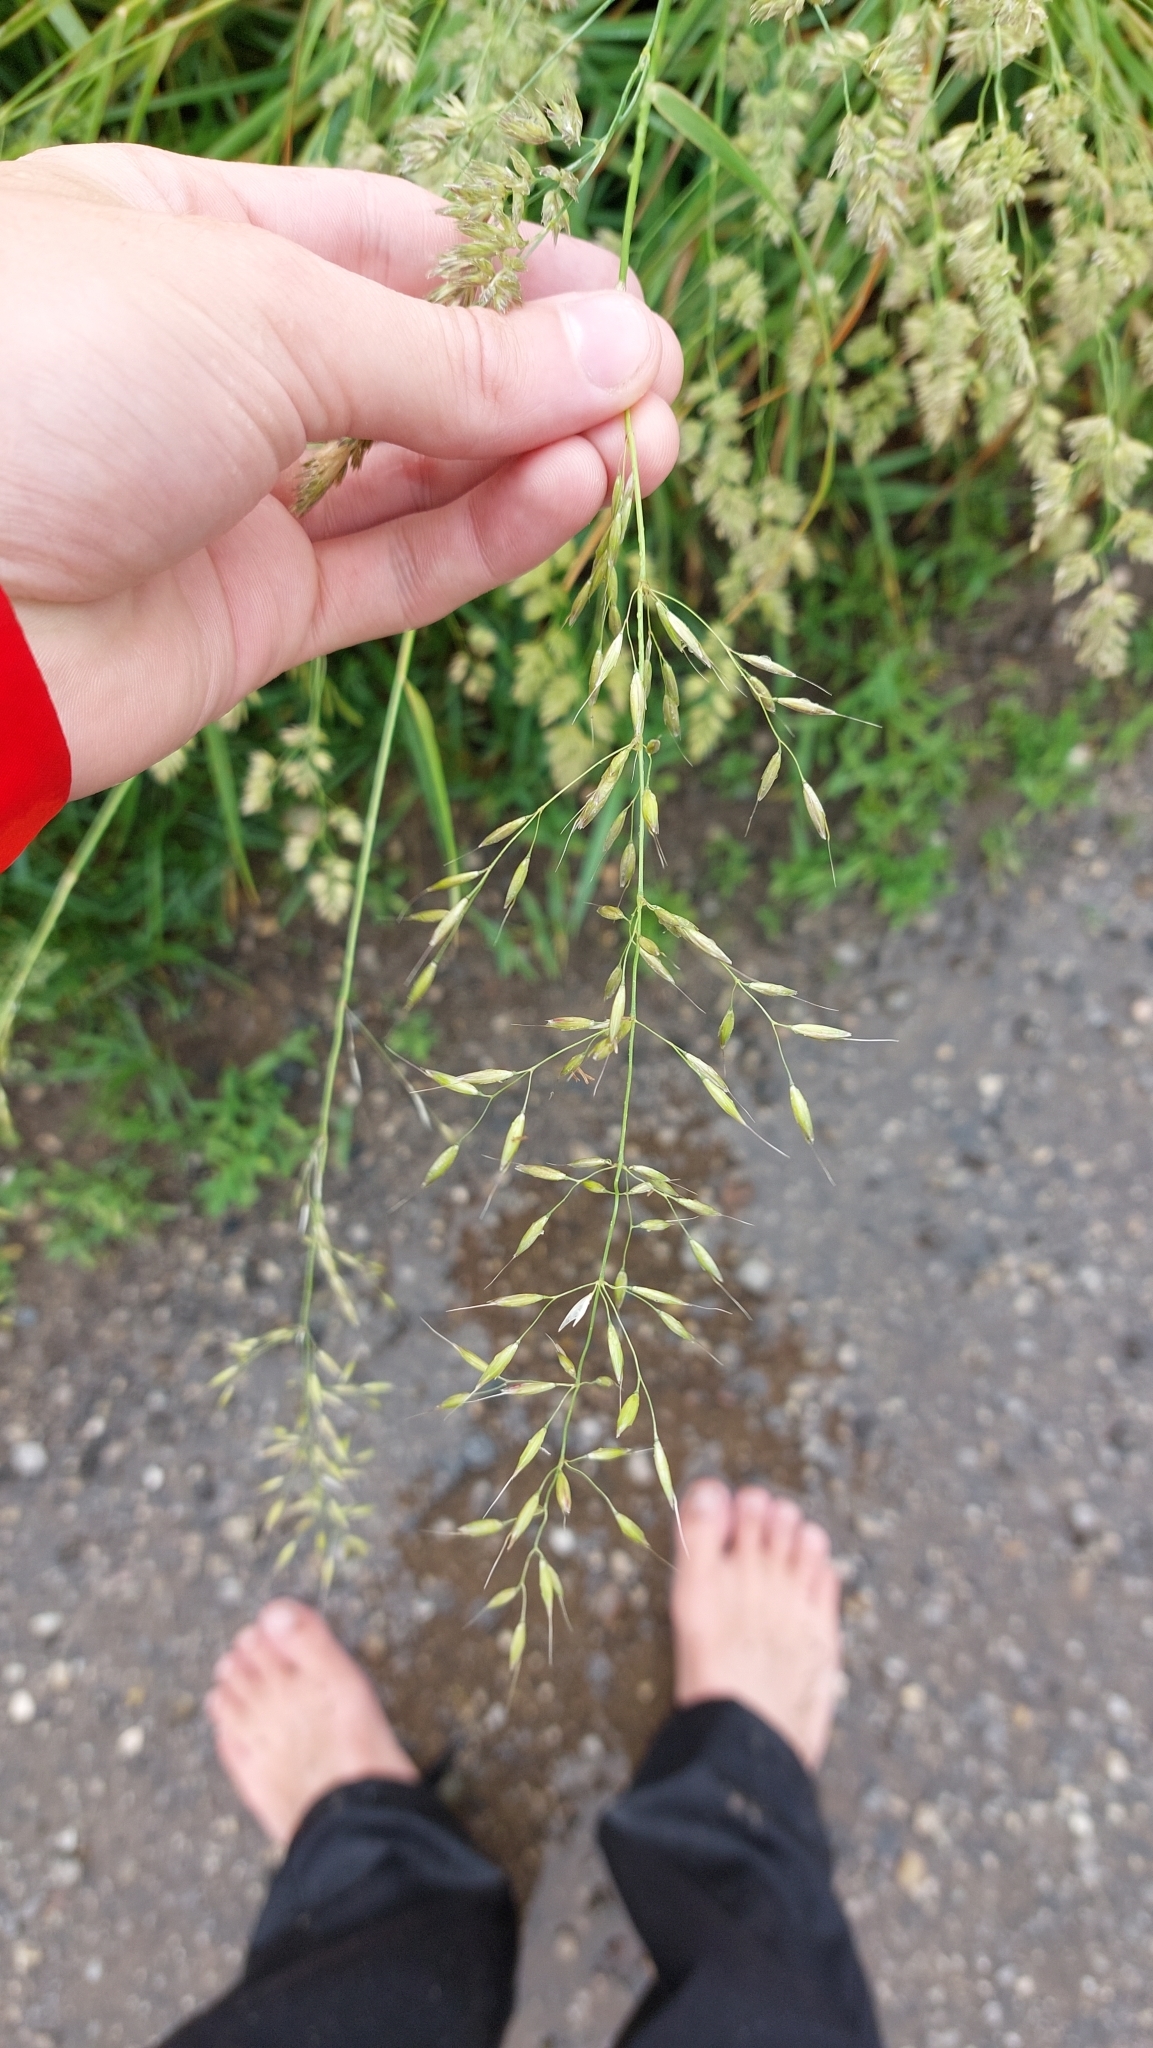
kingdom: Plantae
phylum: Tracheophyta
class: Liliopsida
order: Poales
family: Poaceae
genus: Arrhenatherum
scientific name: Arrhenatherum elatius
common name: Tall oatgrass
